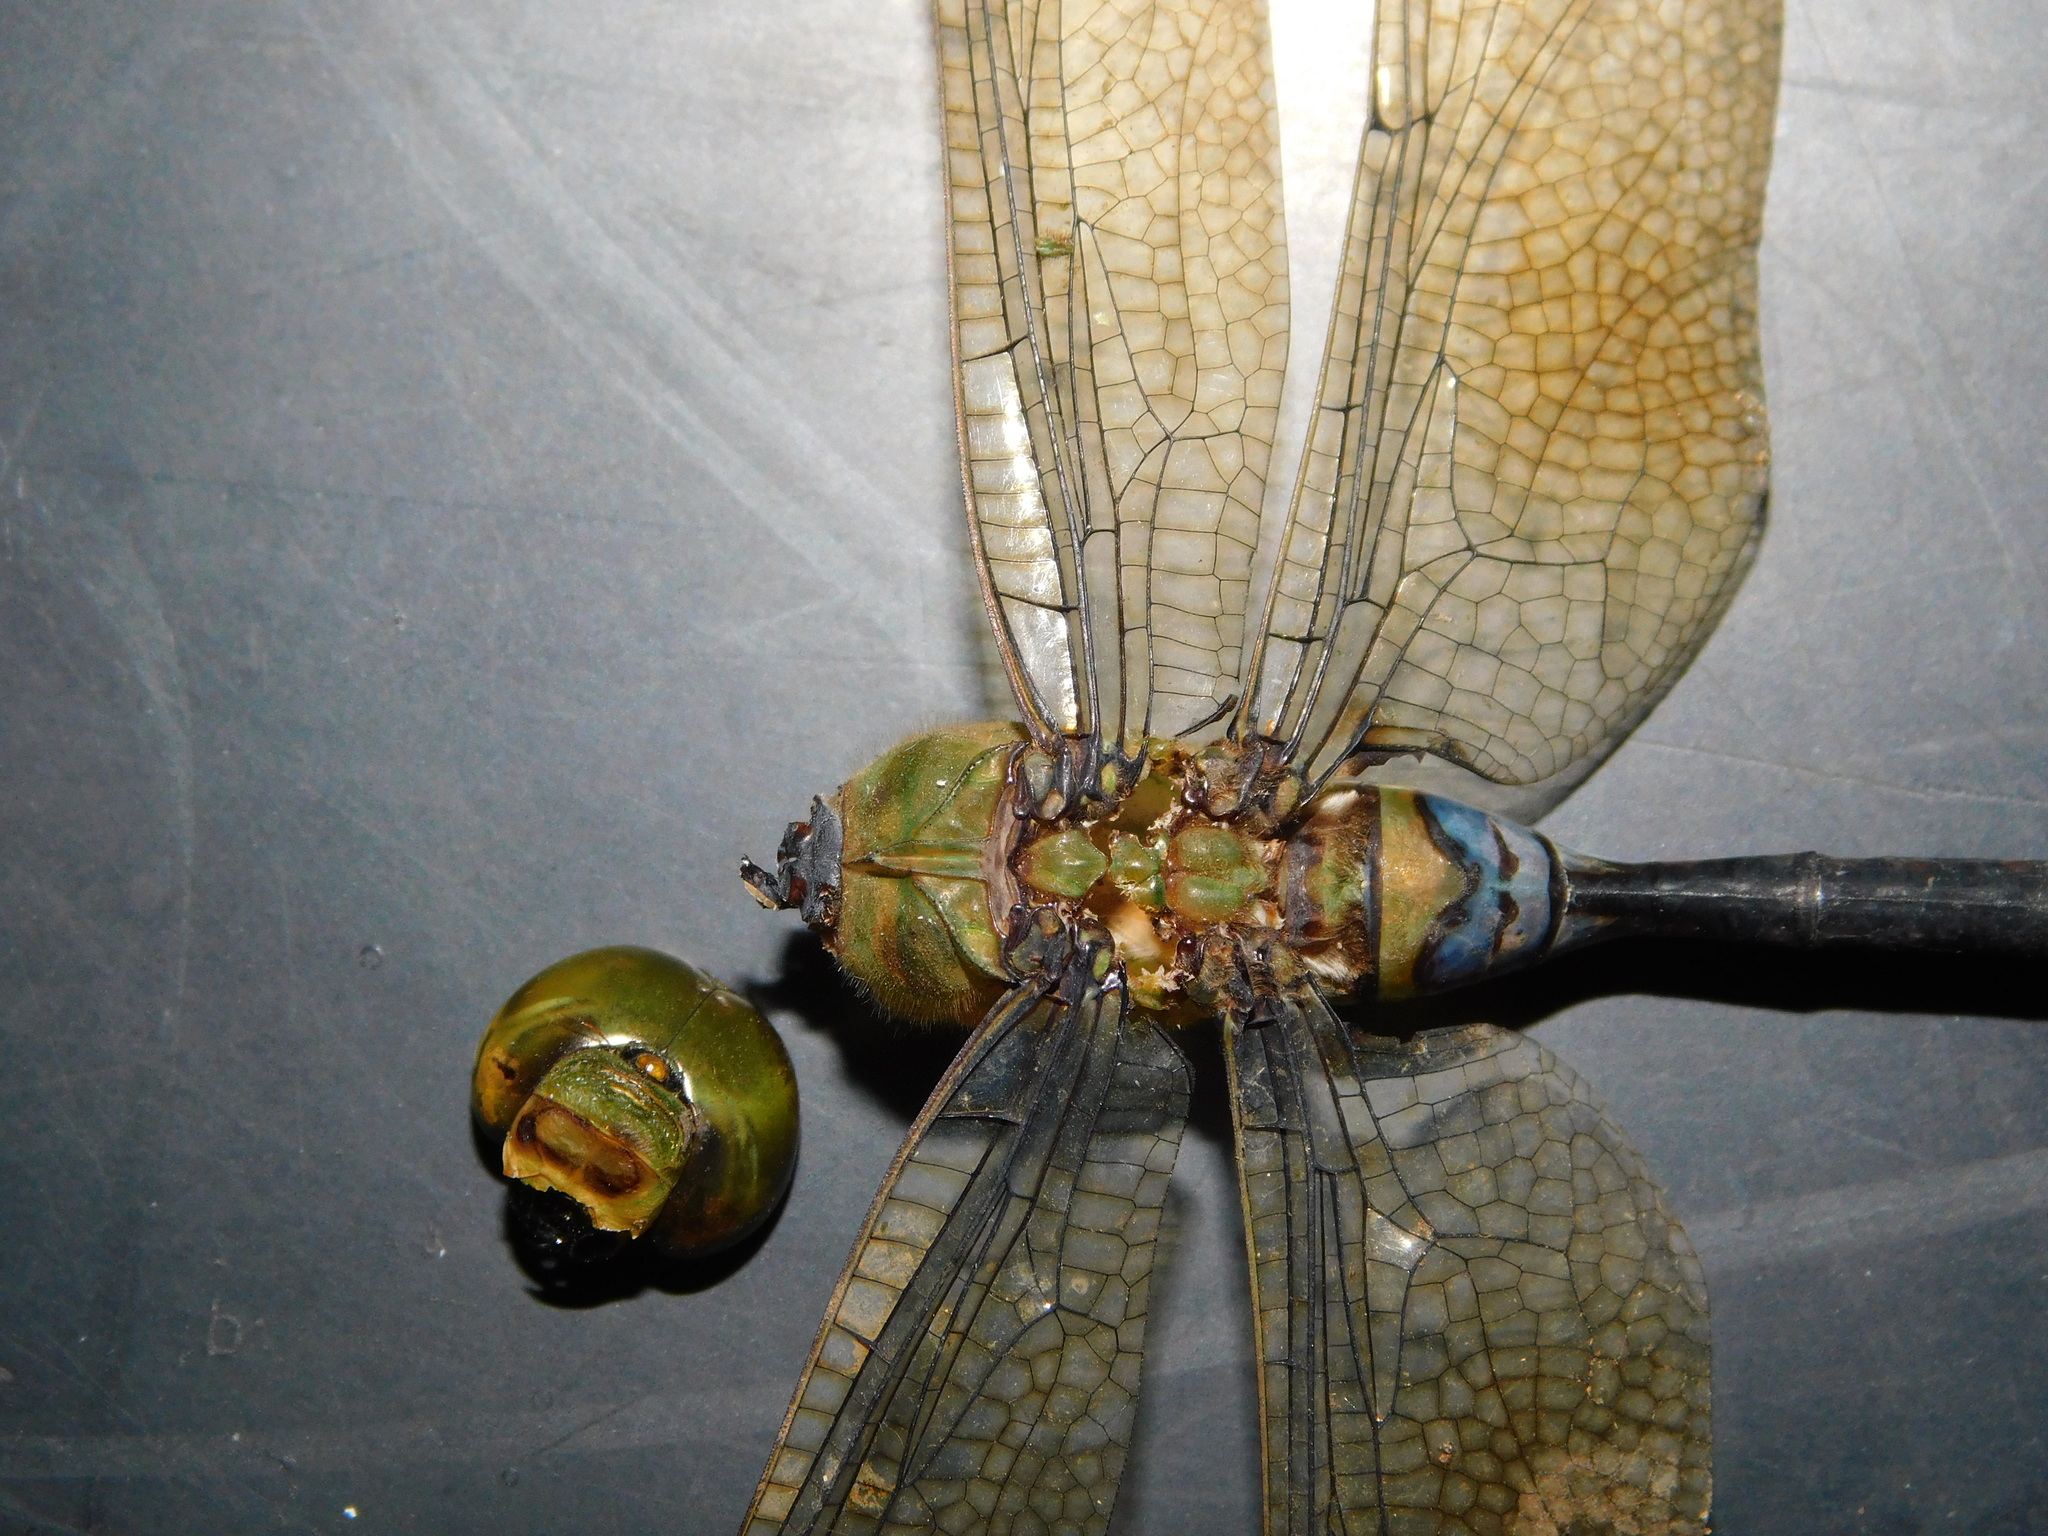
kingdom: Animalia
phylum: Arthropoda
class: Insecta
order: Odonata
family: Aeshnidae
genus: Anax
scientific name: Anax guttatus
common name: Emperor
